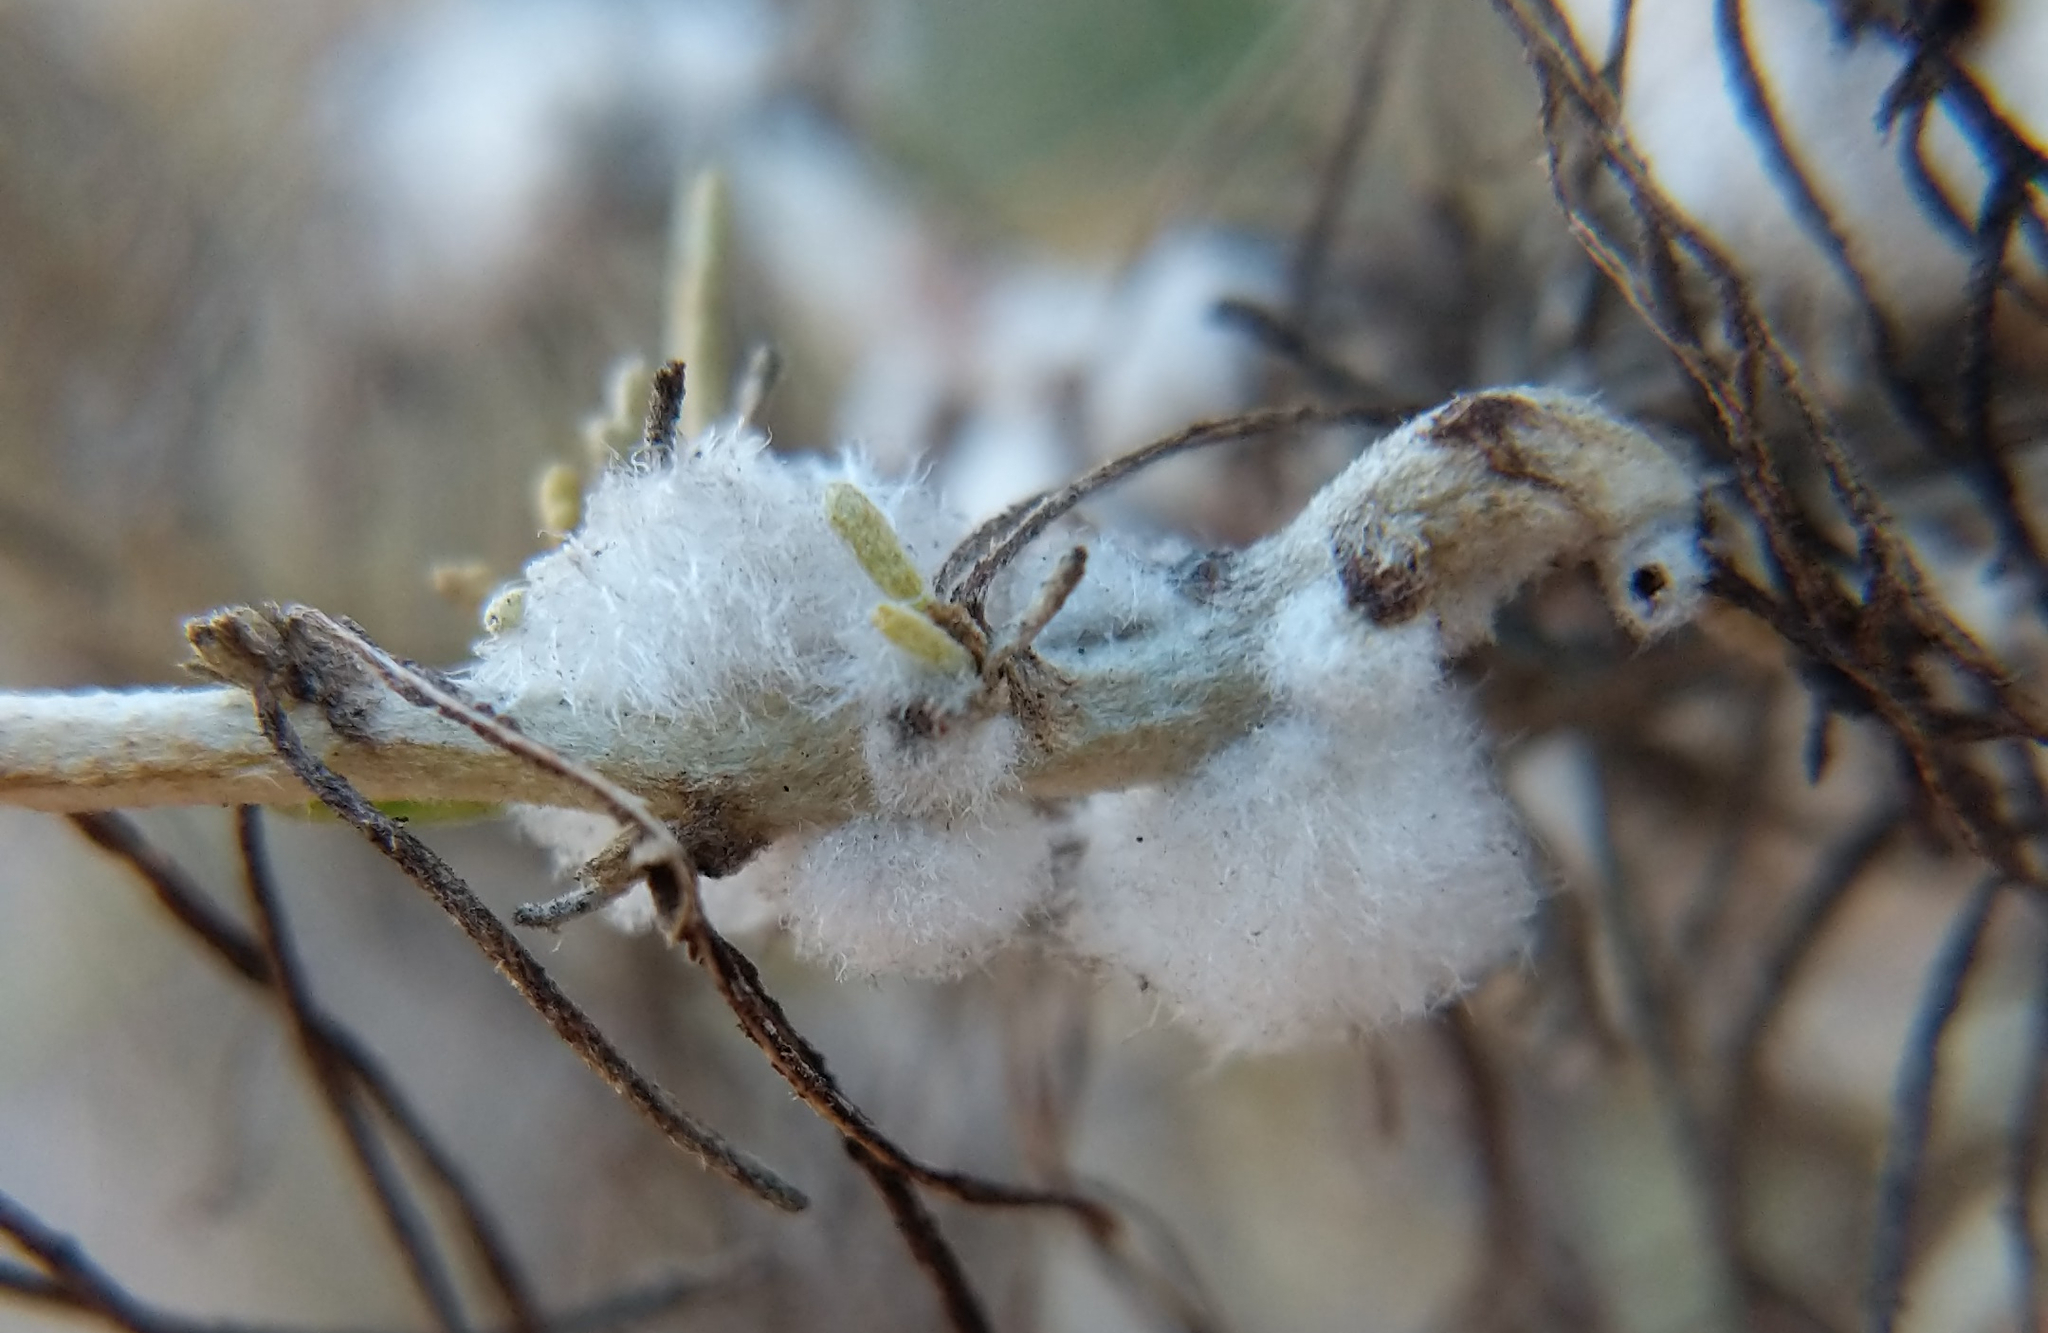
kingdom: Animalia
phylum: Arthropoda
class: Insecta
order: Diptera
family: Cecidomyiidae
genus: Rhopalomyia
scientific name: Rhopalomyia floccosa
